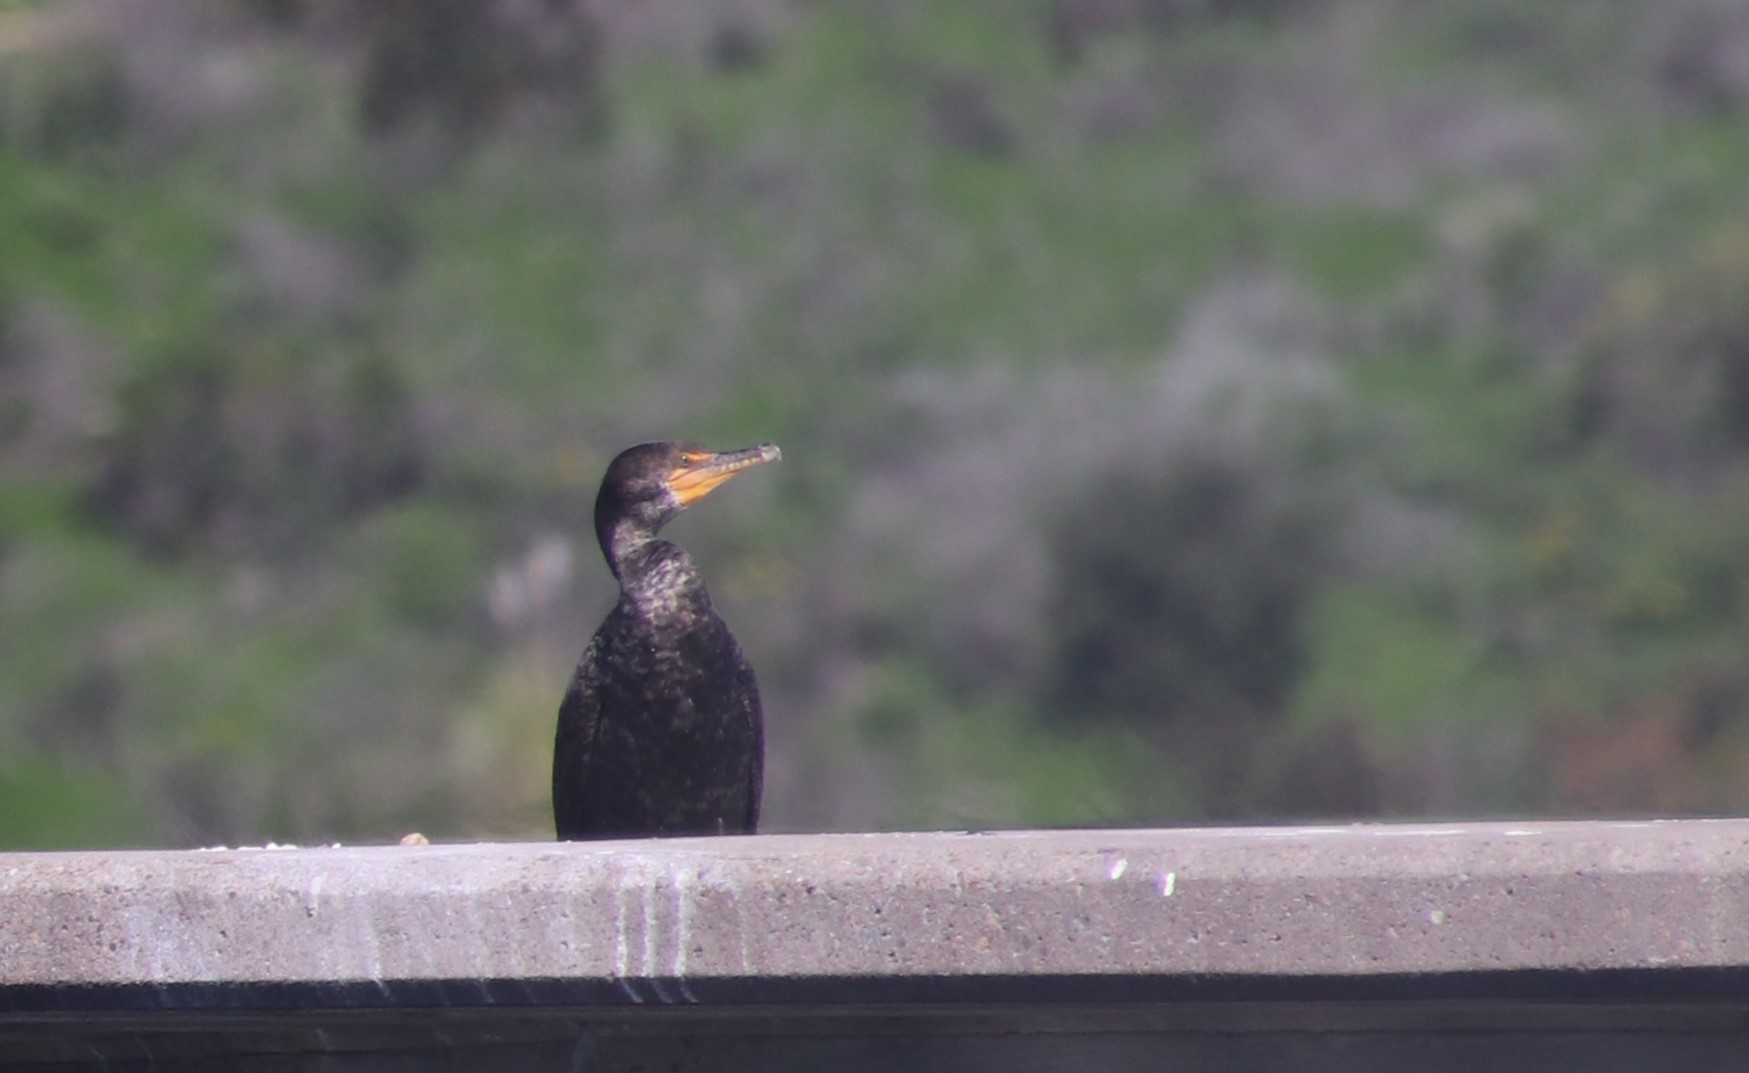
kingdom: Animalia
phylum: Chordata
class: Aves
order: Suliformes
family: Phalacrocoracidae
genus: Phalacrocorax
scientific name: Phalacrocorax auritus
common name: Double-crested cormorant
